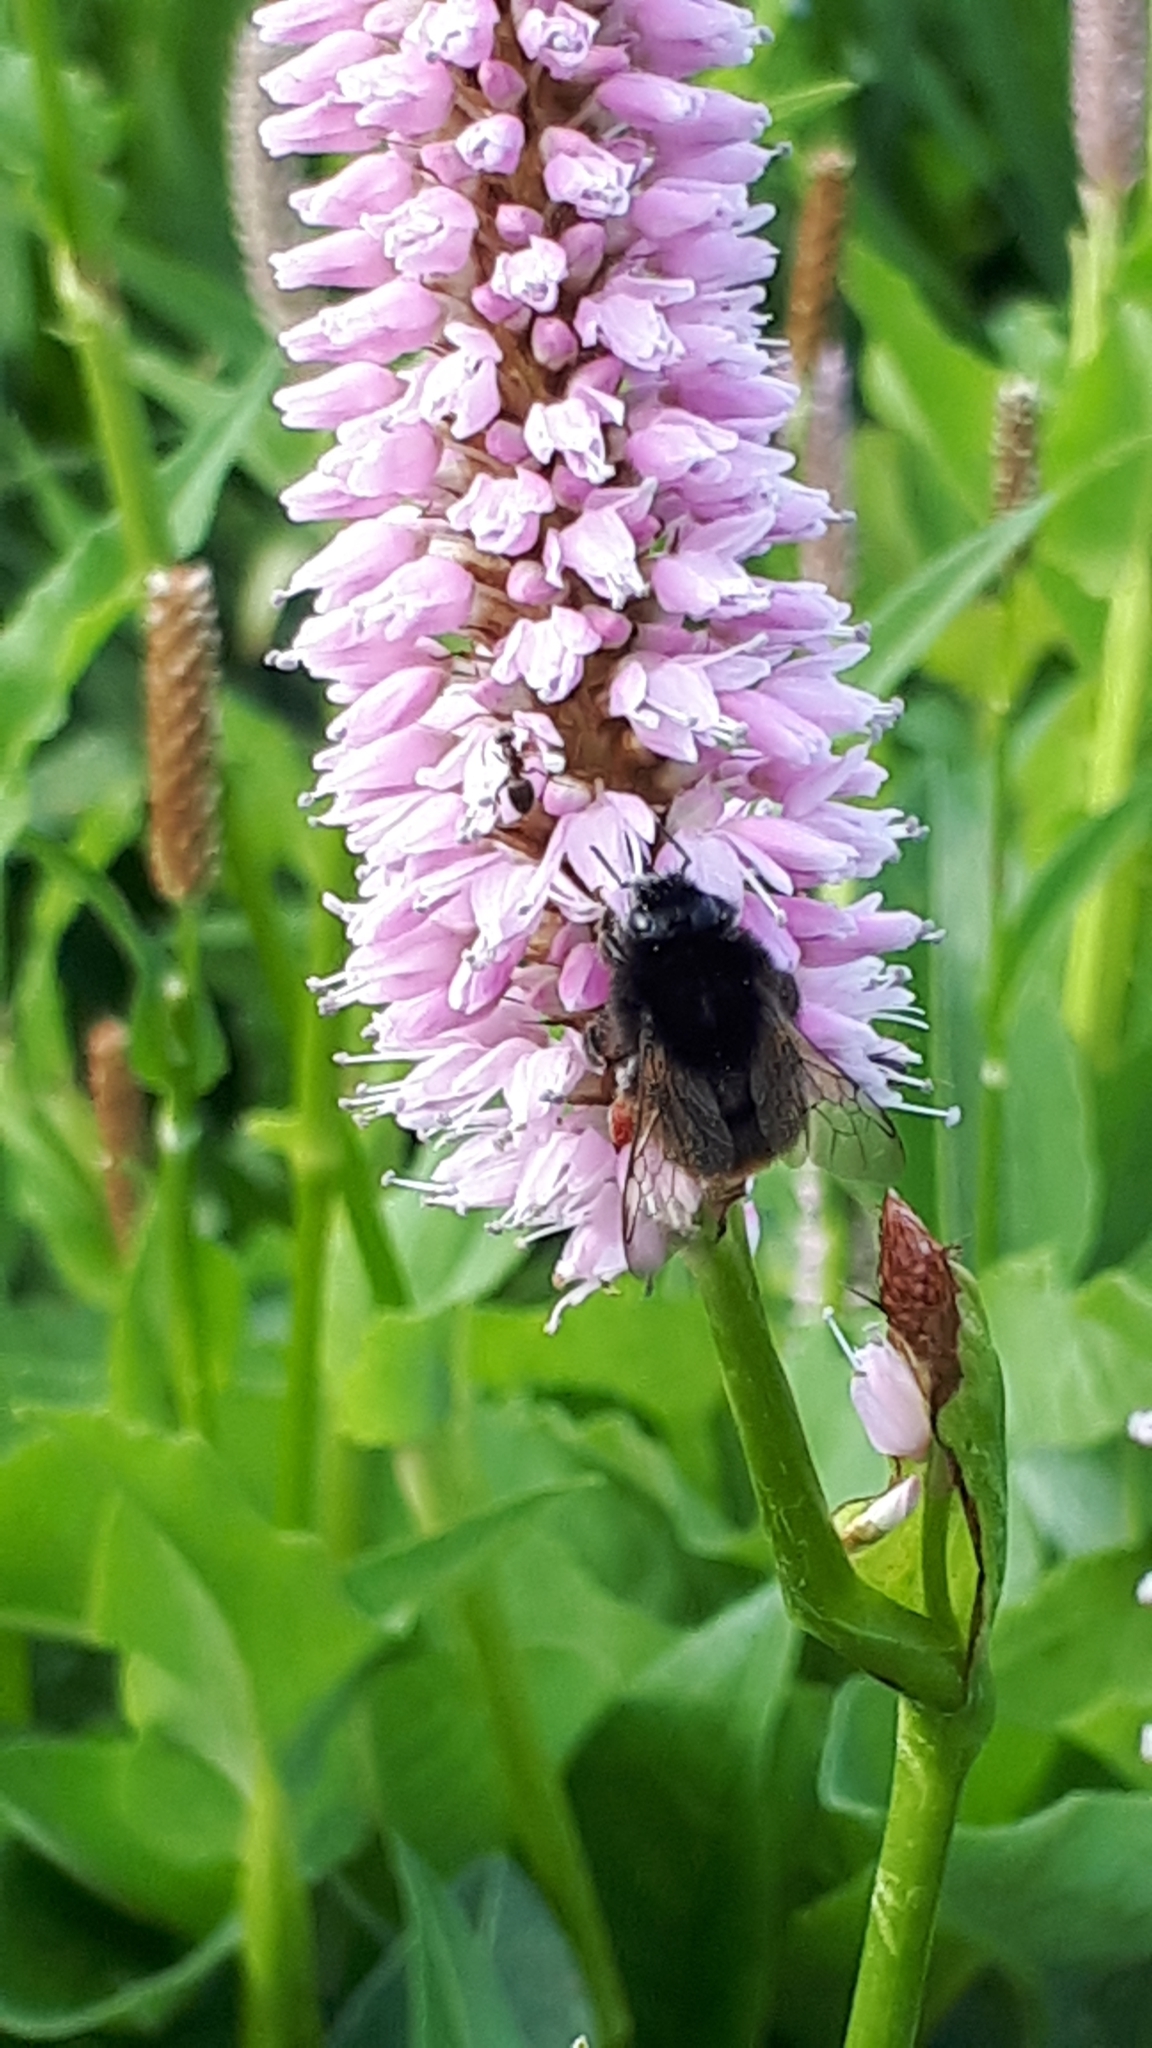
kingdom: Animalia
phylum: Arthropoda
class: Insecta
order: Hymenoptera
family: Apidae
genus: Bombus
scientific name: Bombus lapidarius
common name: Large red-tailed humble-bee
